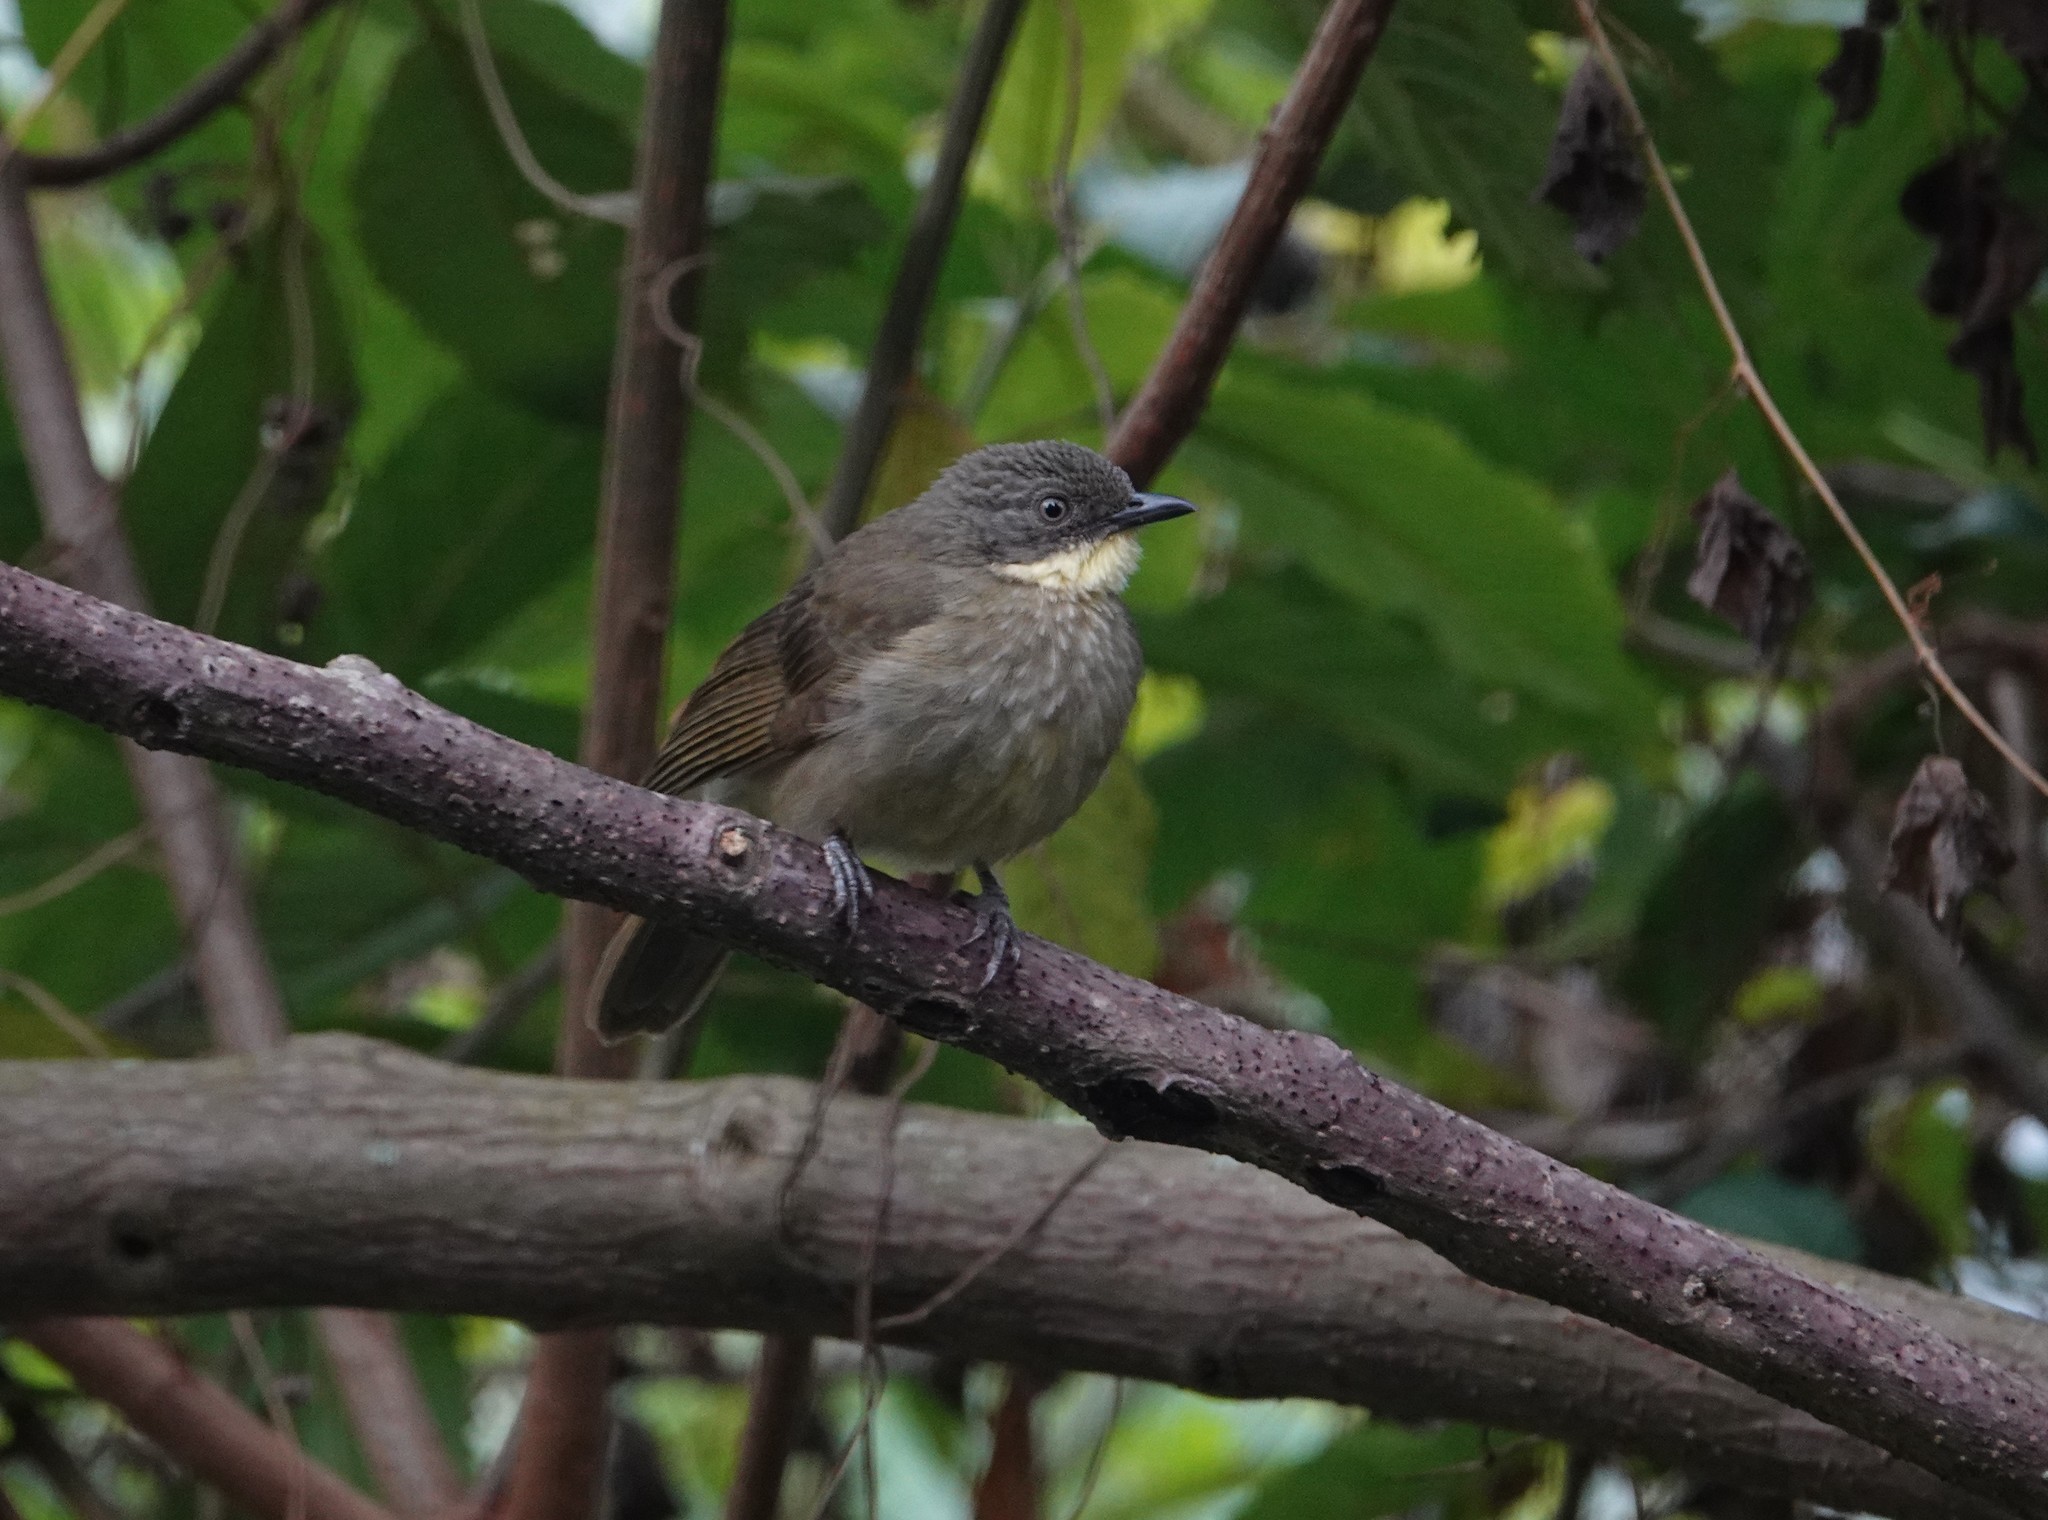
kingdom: Animalia
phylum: Chordata
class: Aves
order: Passeriformes
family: Pycnonotidae
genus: Atimastillas
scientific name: Atimastillas flavicollis
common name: Yellow-throated leaflove
